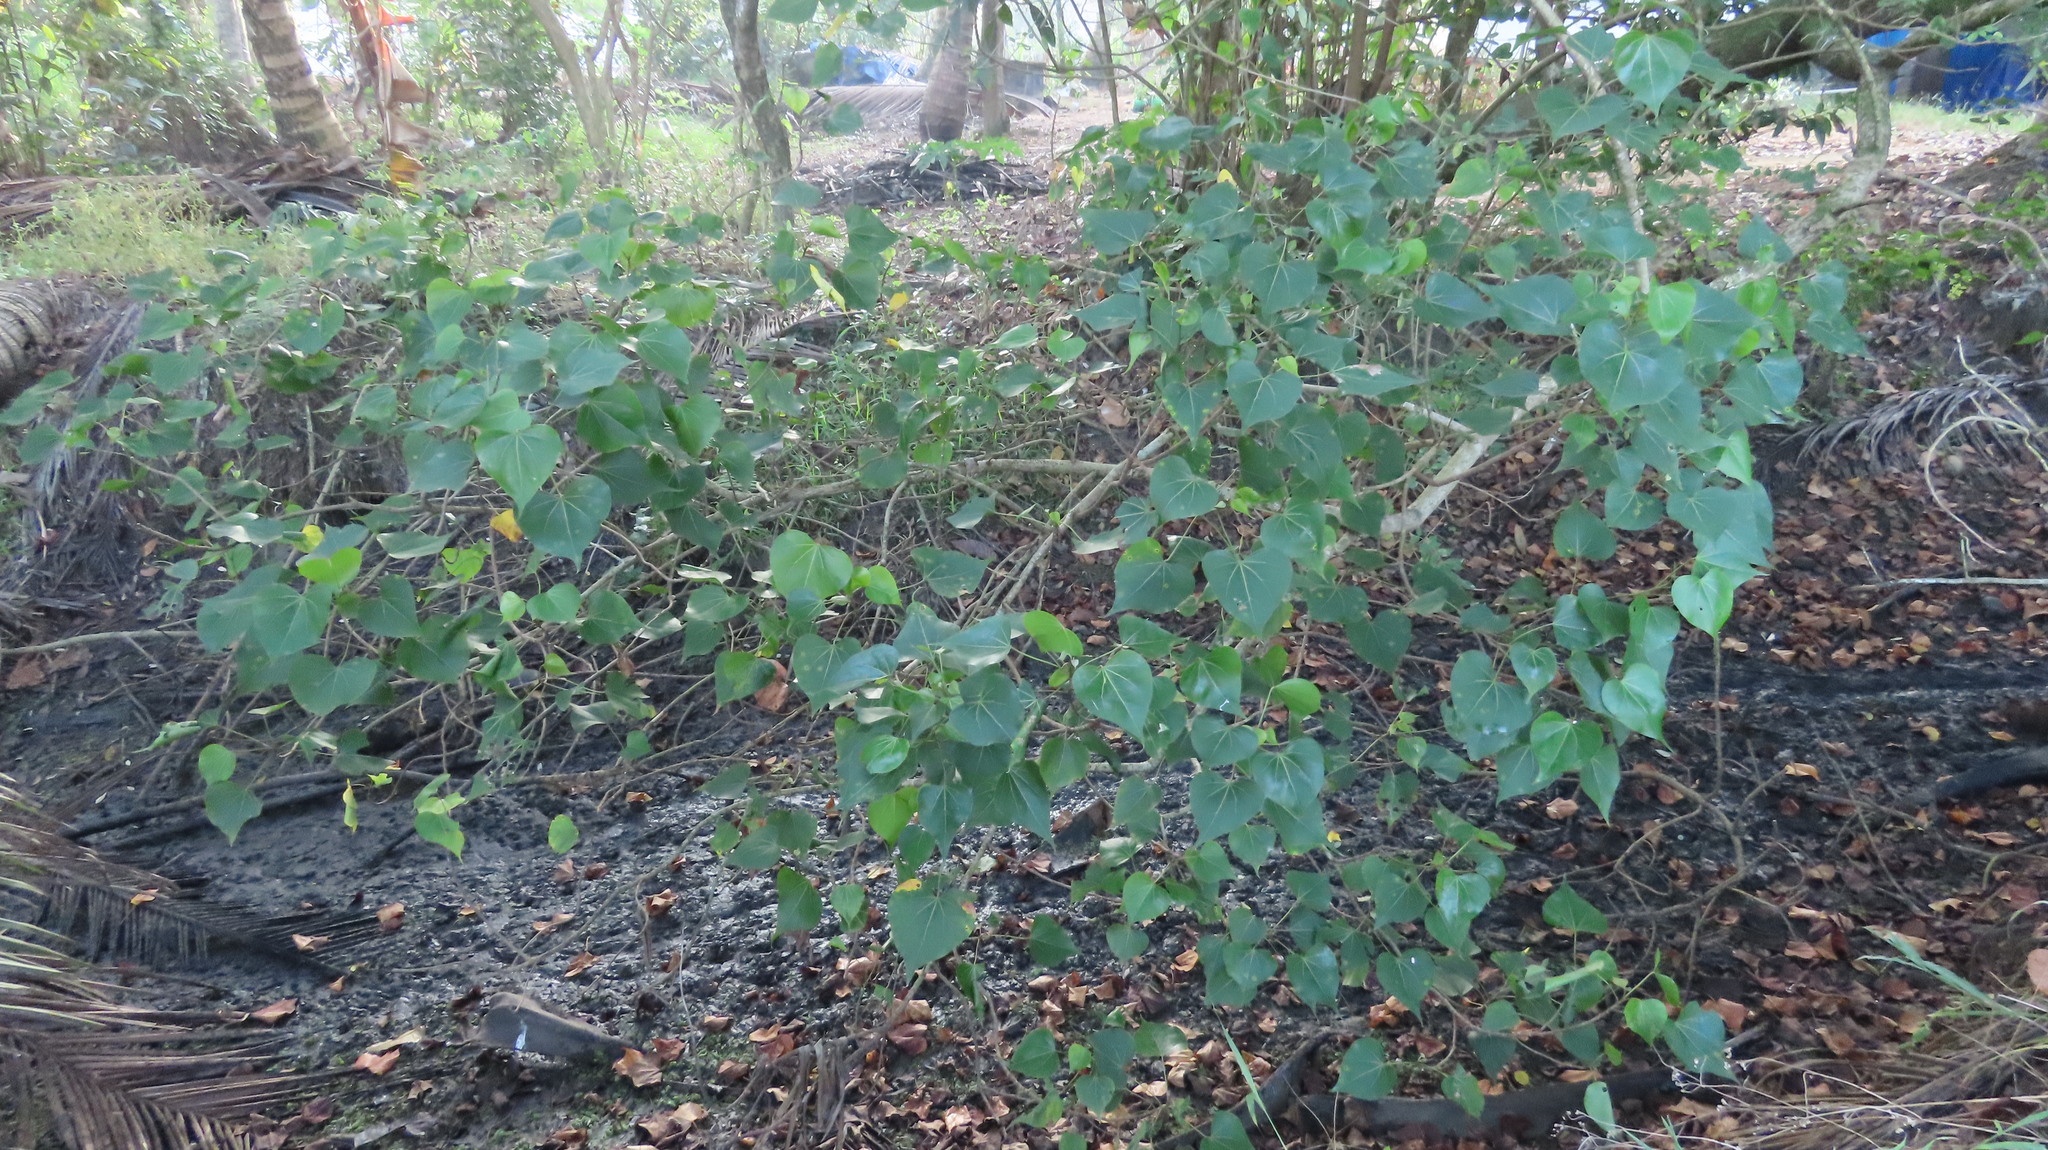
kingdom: Plantae
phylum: Tracheophyta
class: Magnoliopsida
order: Malvales
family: Malvaceae
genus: Thespesia
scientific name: Thespesia populnea
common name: Seaside mahoe
